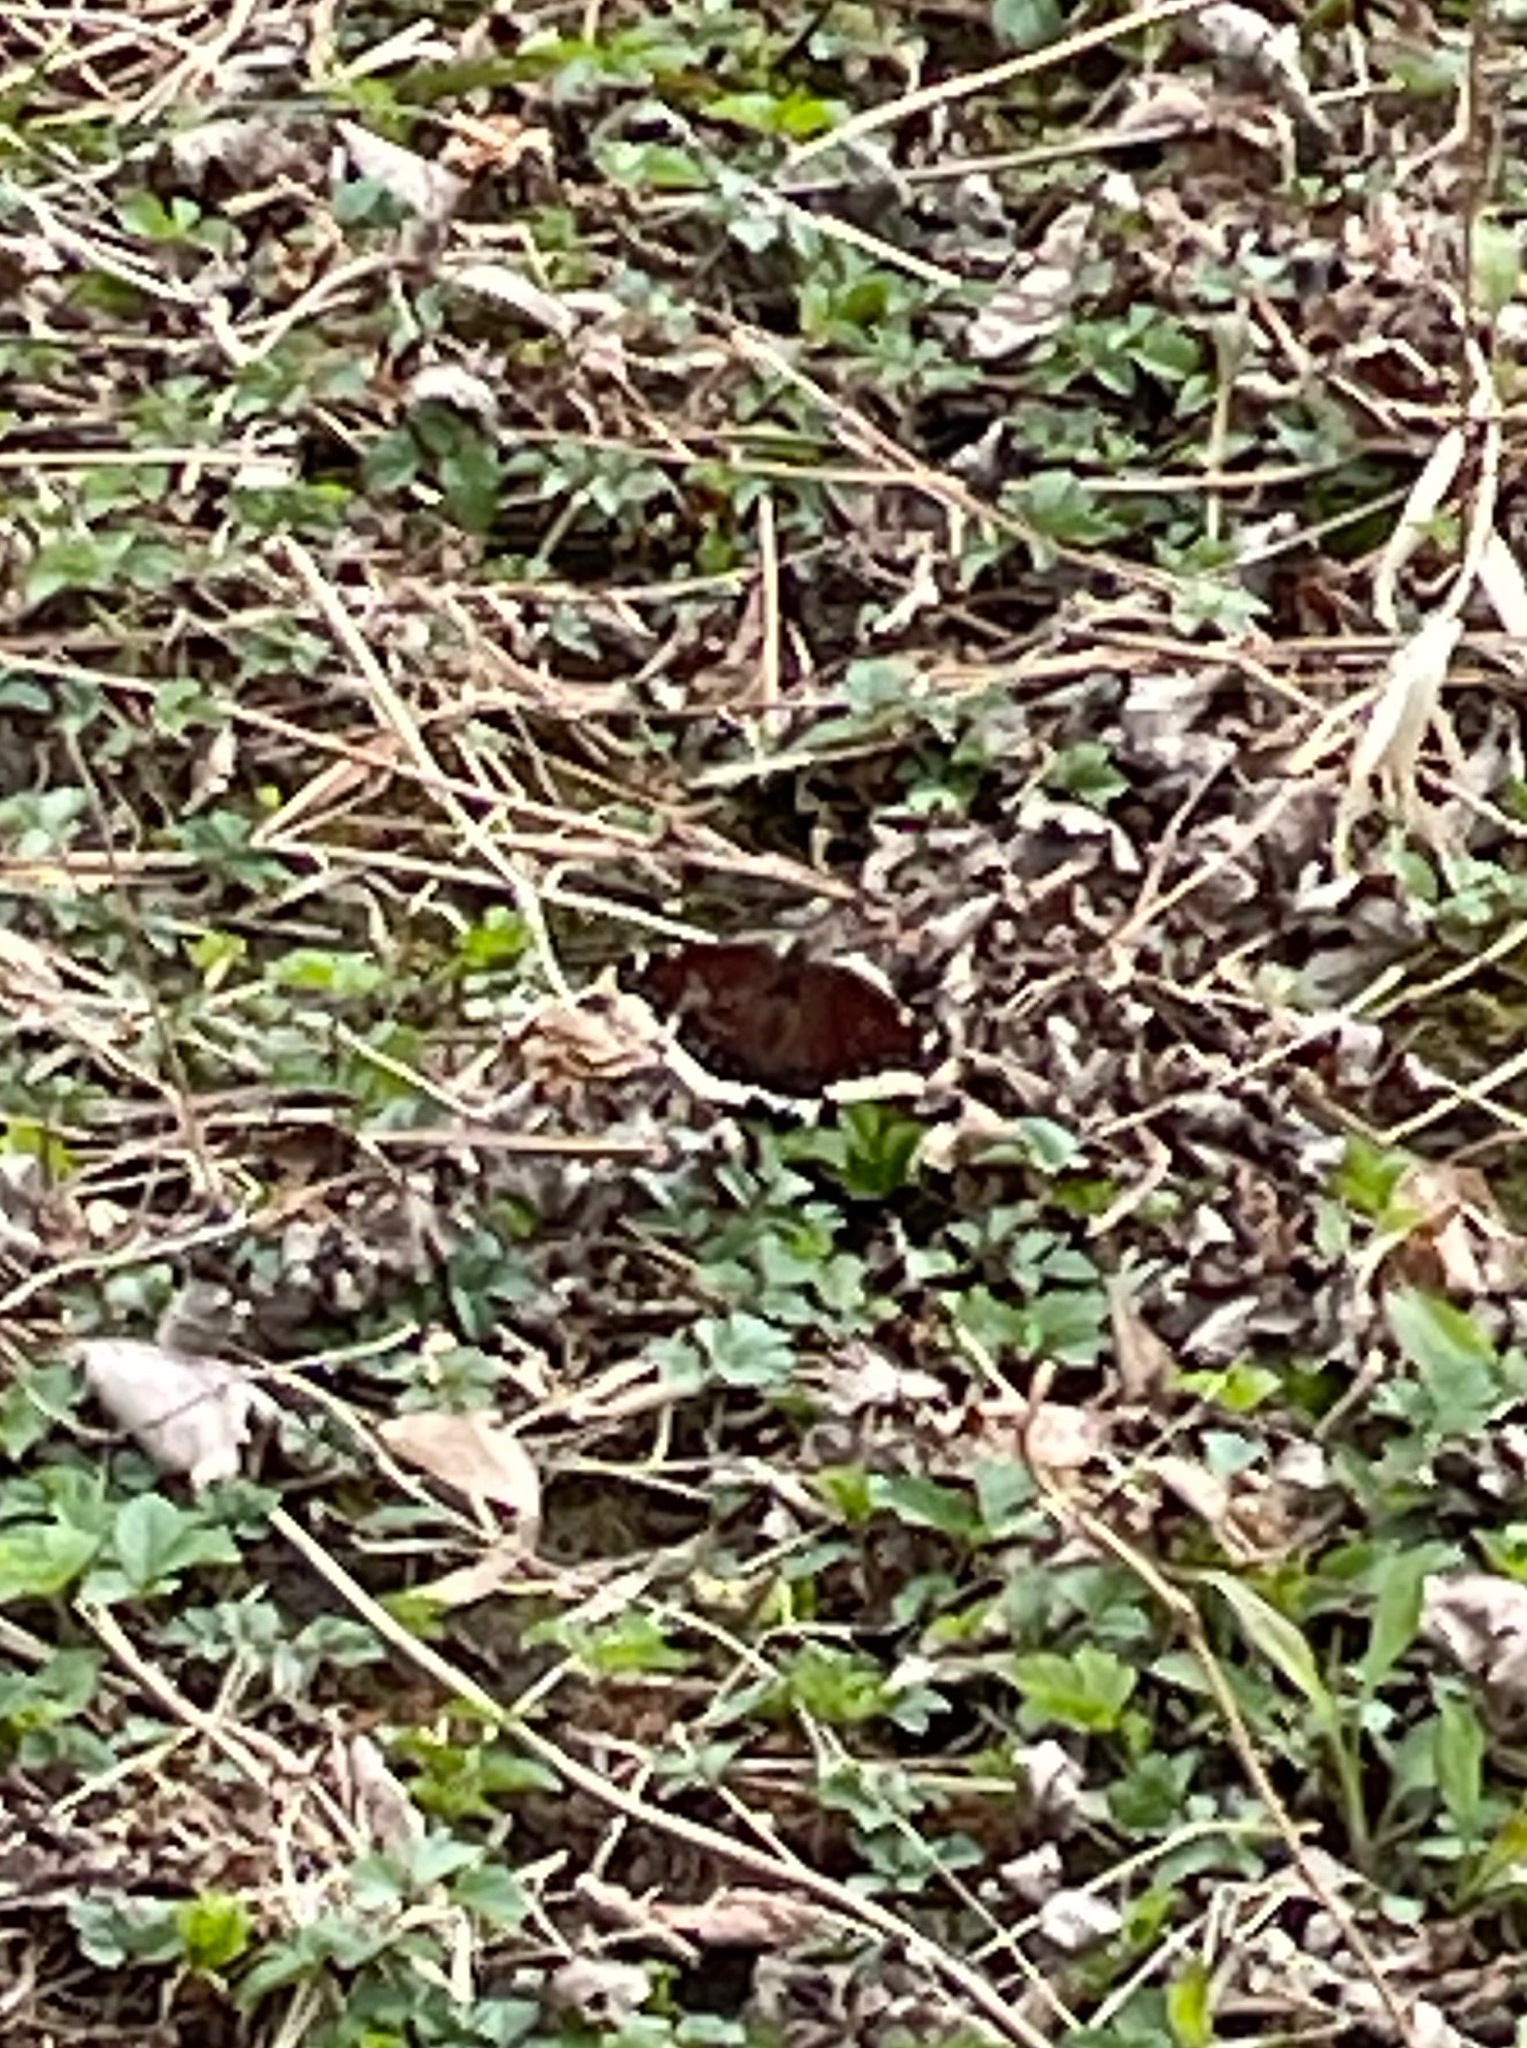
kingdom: Animalia
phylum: Arthropoda
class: Insecta
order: Lepidoptera
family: Nymphalidae
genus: Nymphalis
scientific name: Nymphalis antiopa
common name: Camberwell beauty
